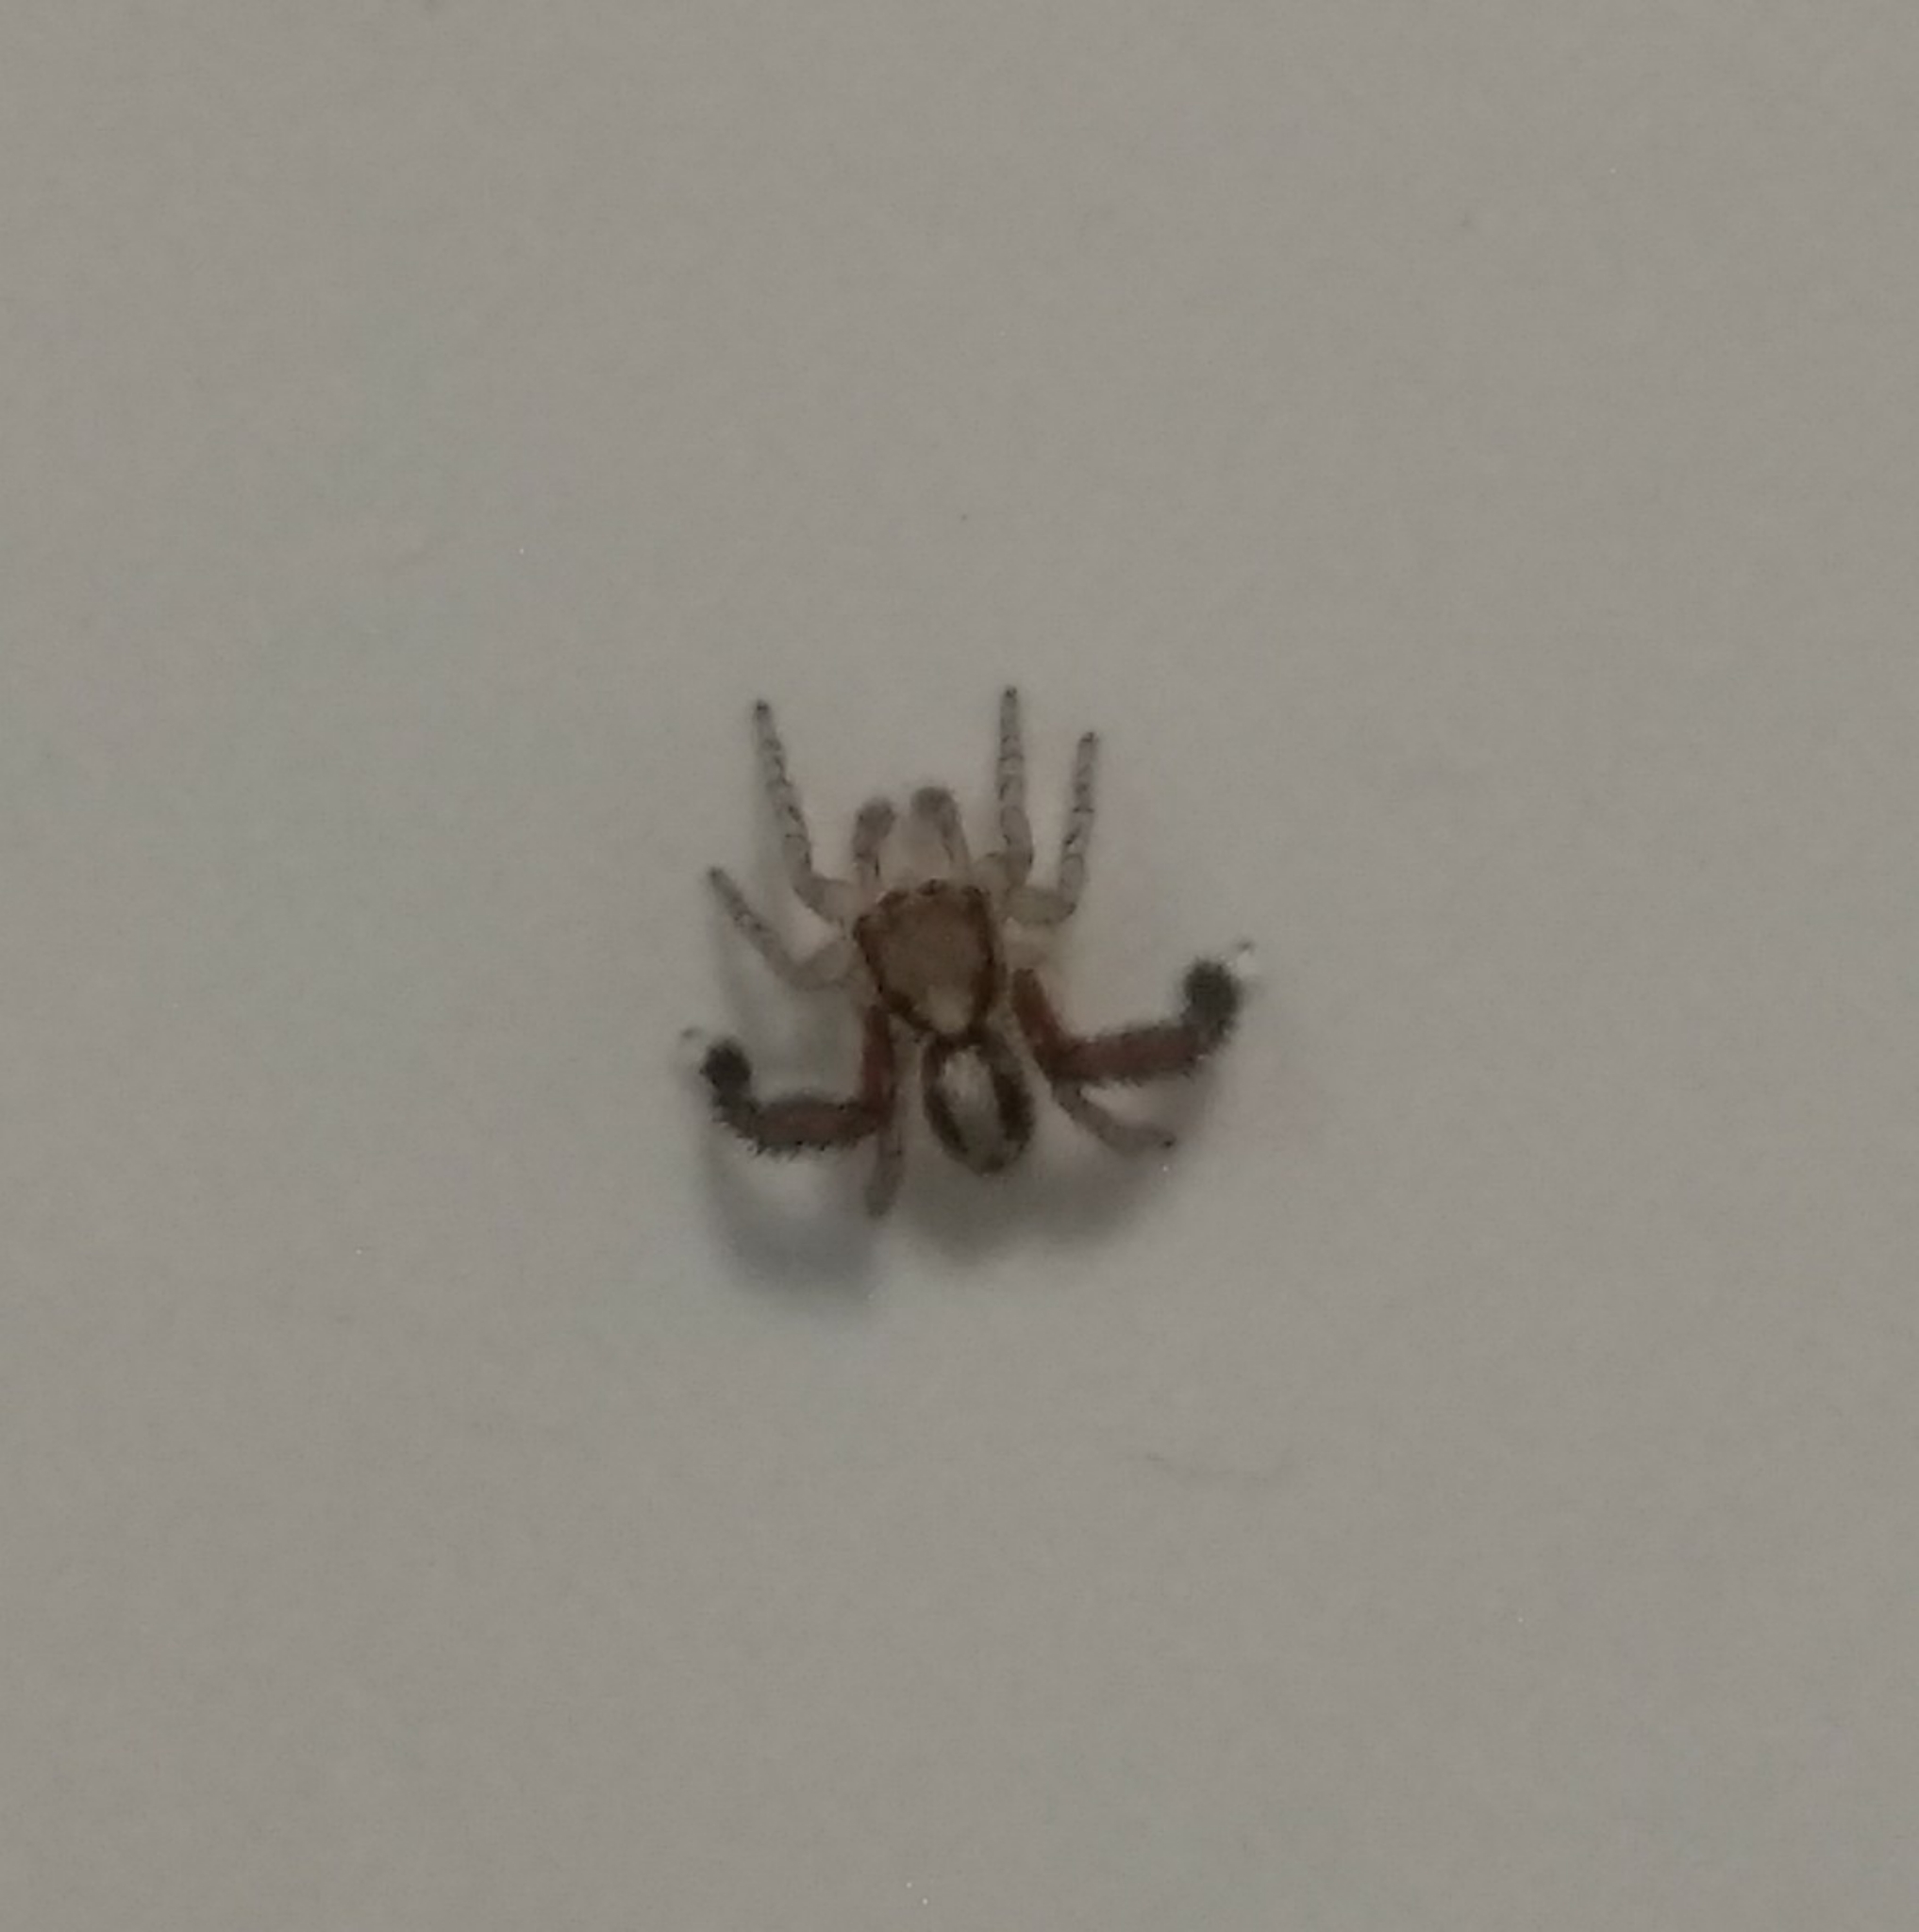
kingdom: Animalia
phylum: Arthropoda
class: Arachnida
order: Araneae
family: Salticidae
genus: Saitis
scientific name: Saitis barbipes
